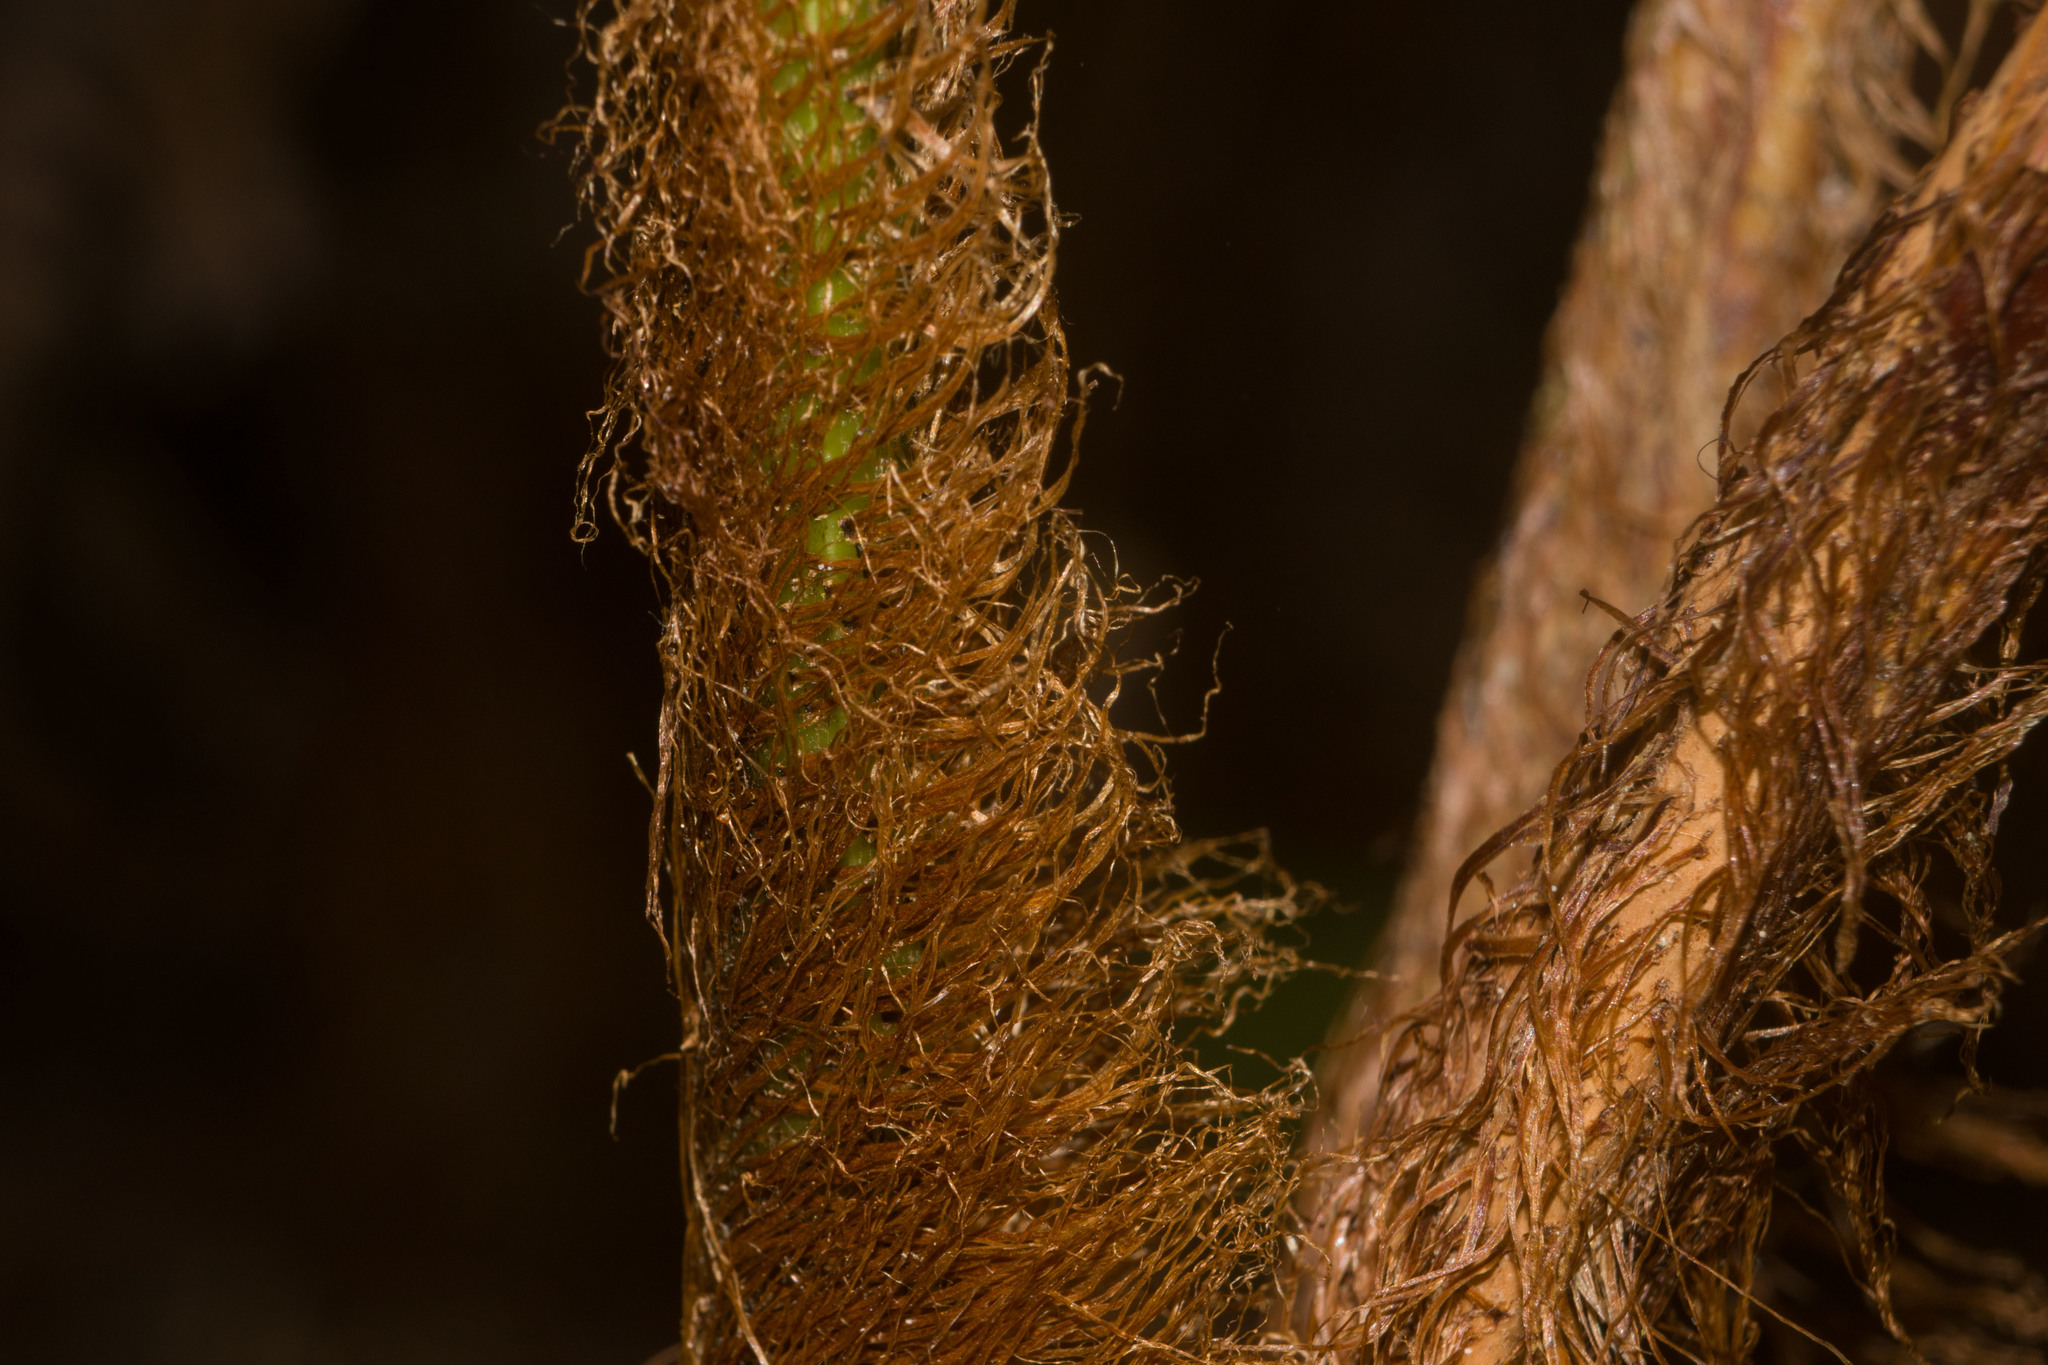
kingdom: Plantae
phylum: Tracheophyta
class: Polypodiopsida
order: Polypodiales
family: Blechnaceae
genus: Sadleria
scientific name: Sadleria pallida
